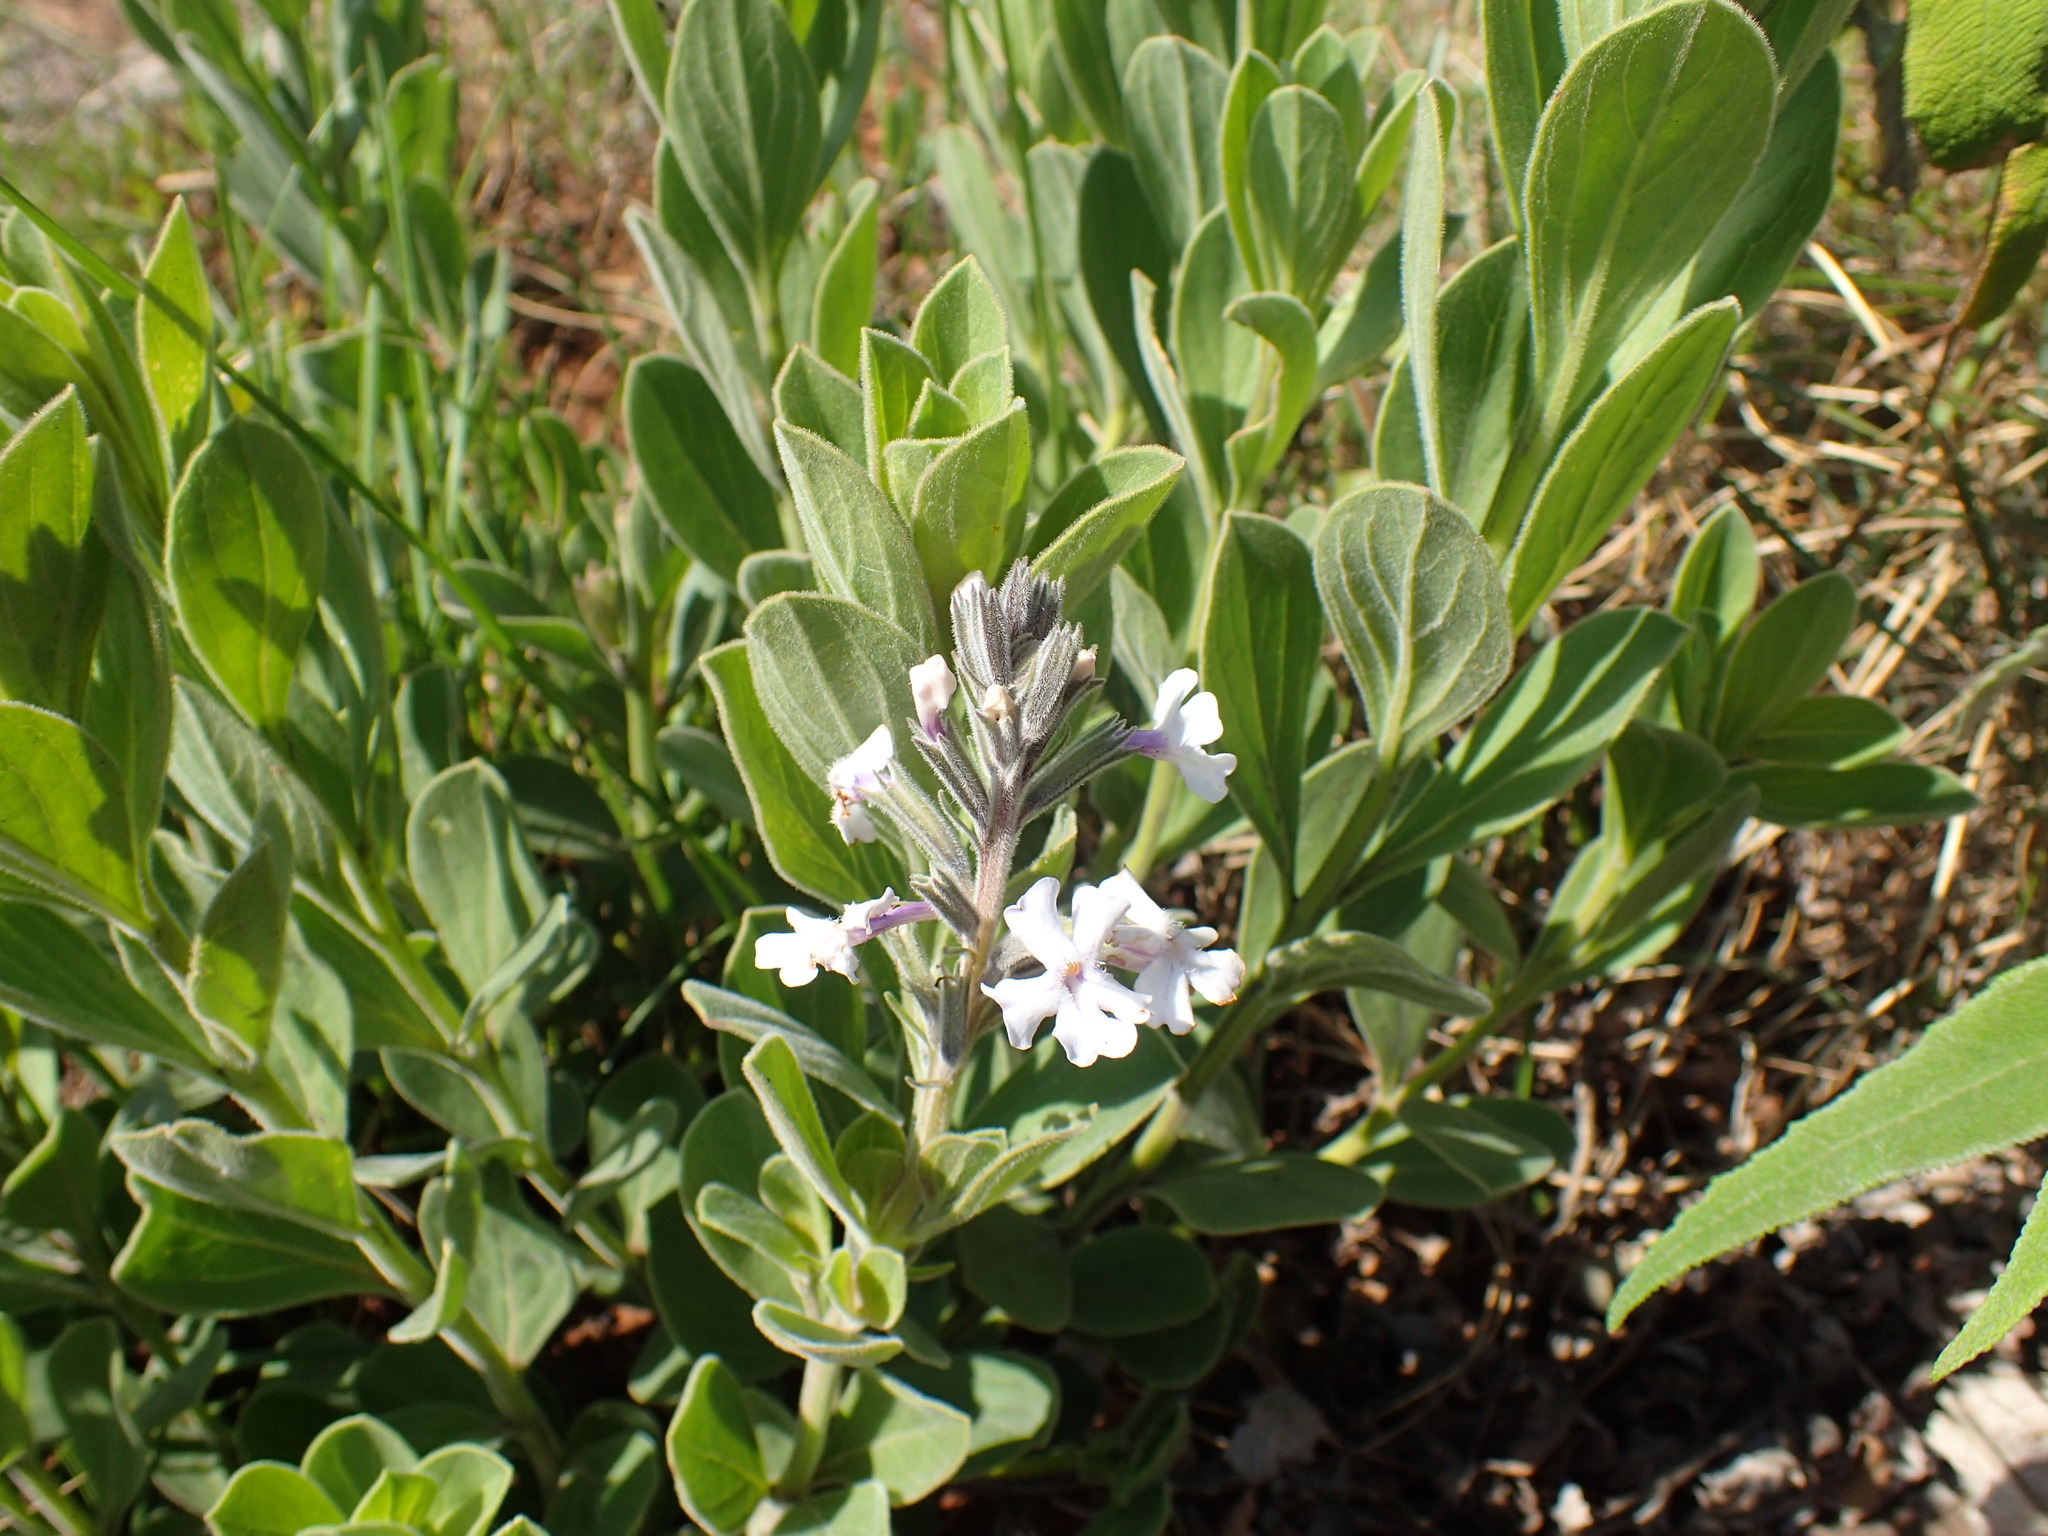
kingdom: Plantae
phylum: Tracheophyta
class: Magnoliopsida
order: Lamiales
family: Verbenaceae
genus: Chascanum
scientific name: Chascanum latifolium
